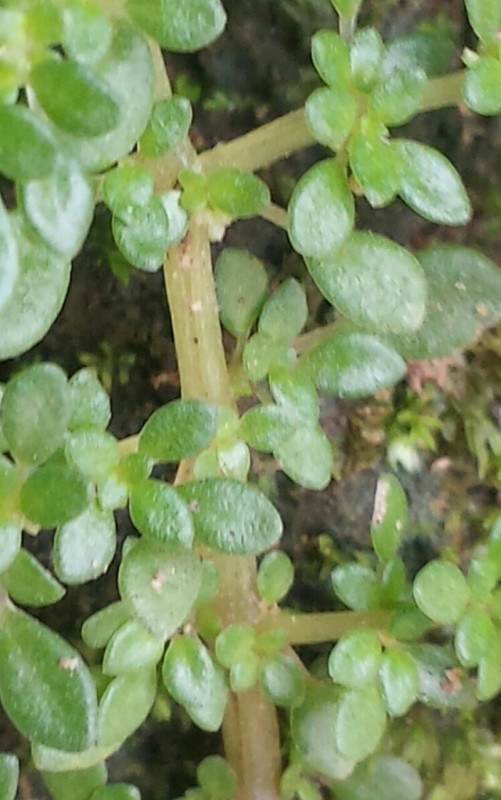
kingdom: Plantae
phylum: Tracheophyta
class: Magnoliopsida
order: Rosales
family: Urticaceae
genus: Pilea
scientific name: Pilea microphylla
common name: Artillery-plant
